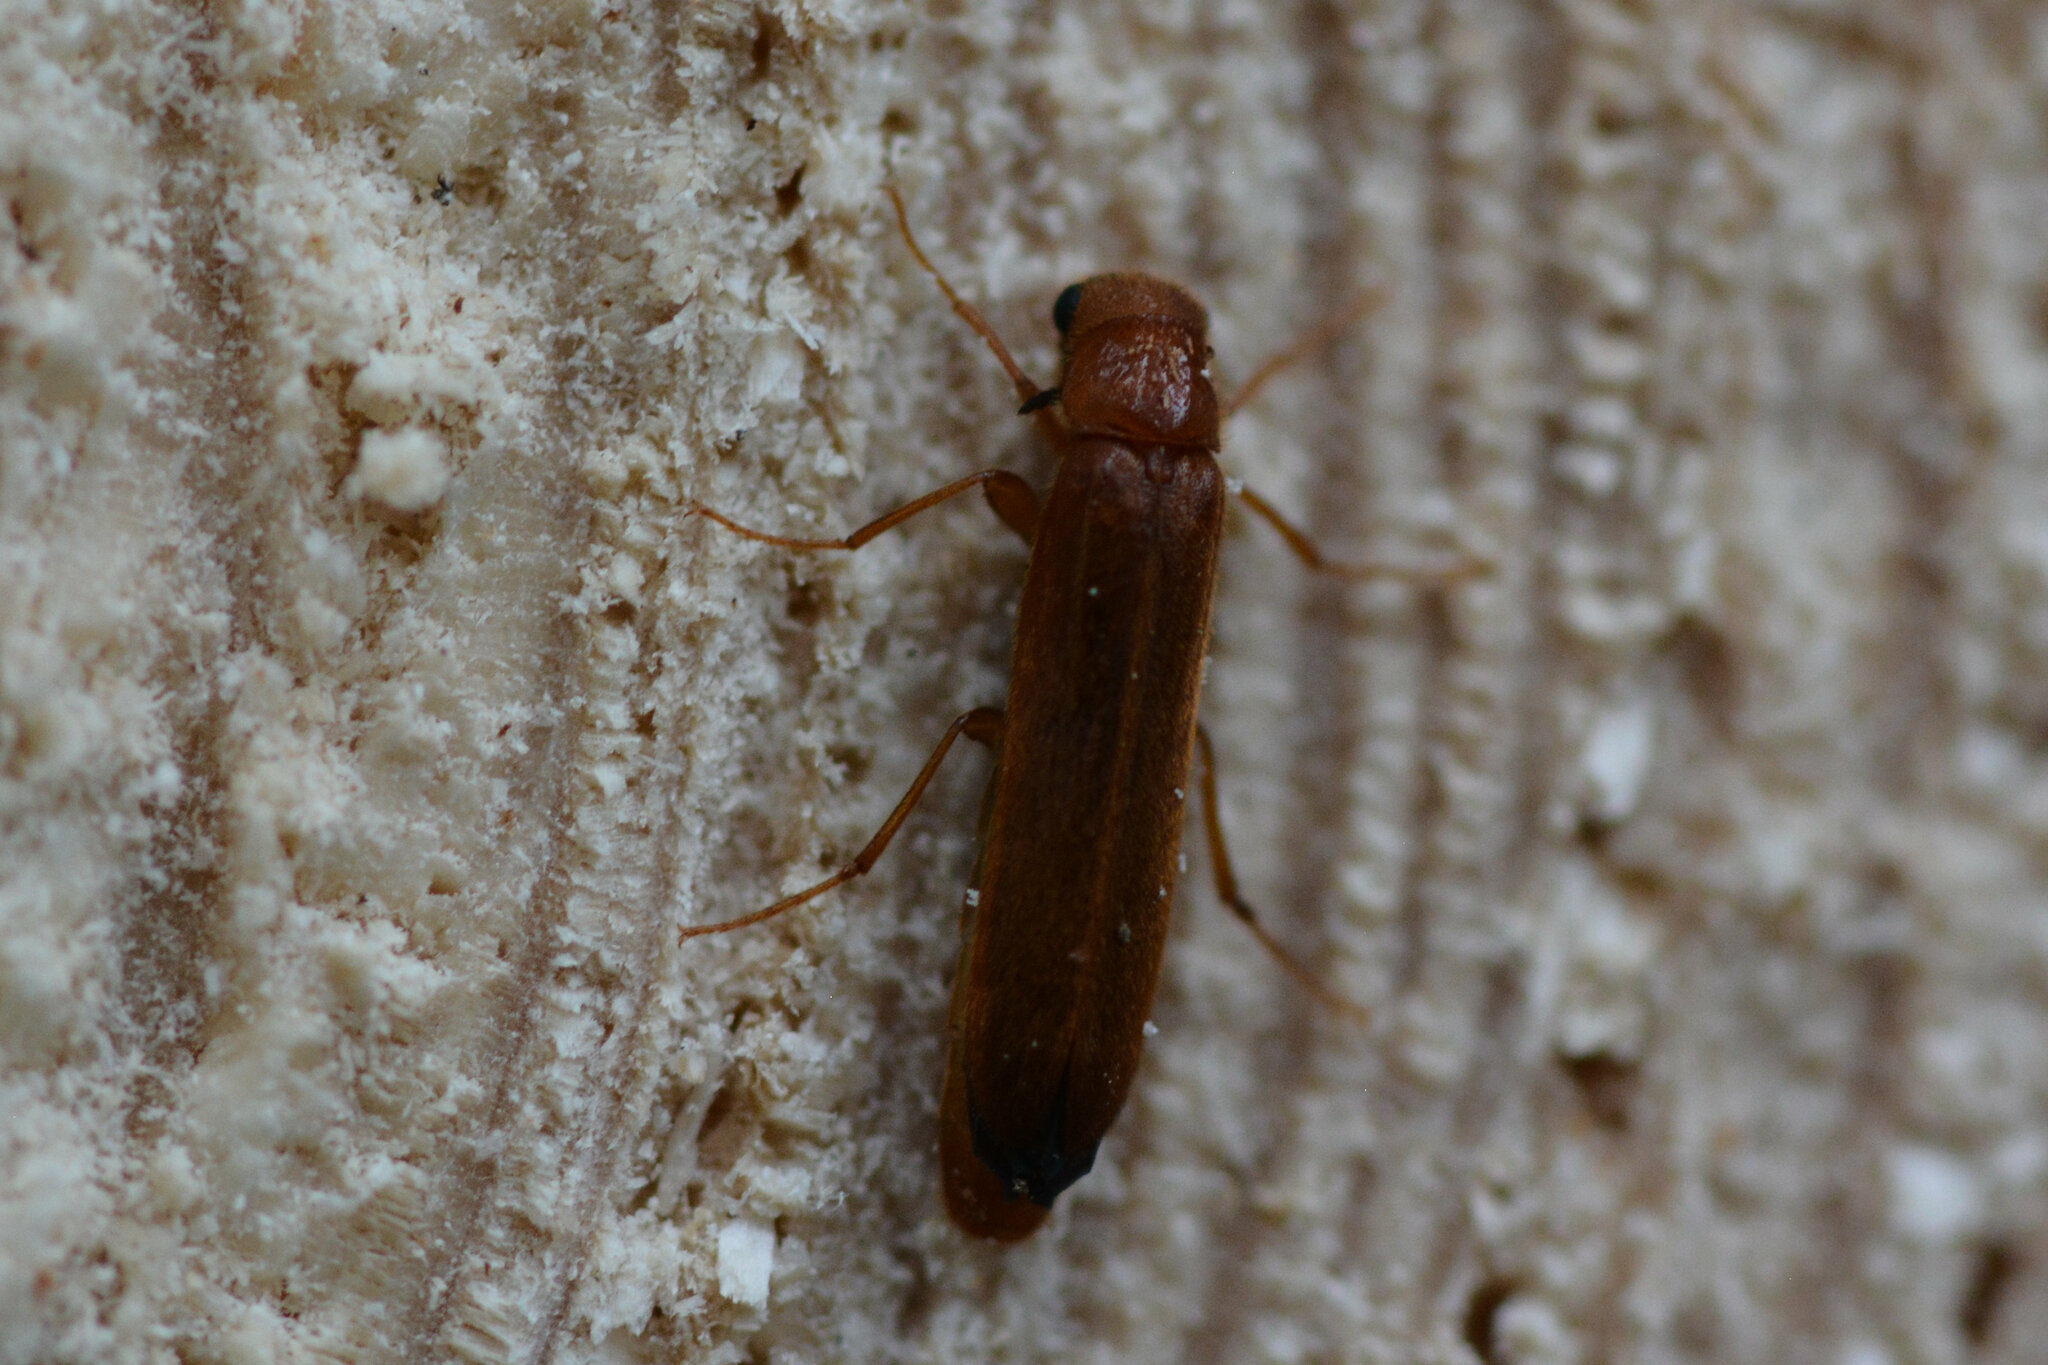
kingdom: Animalia
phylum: Arthropoda
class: Insecta
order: Coleoptera
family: Lymexylidae
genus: Hylecoetus
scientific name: Hylecoetus dermestoides
